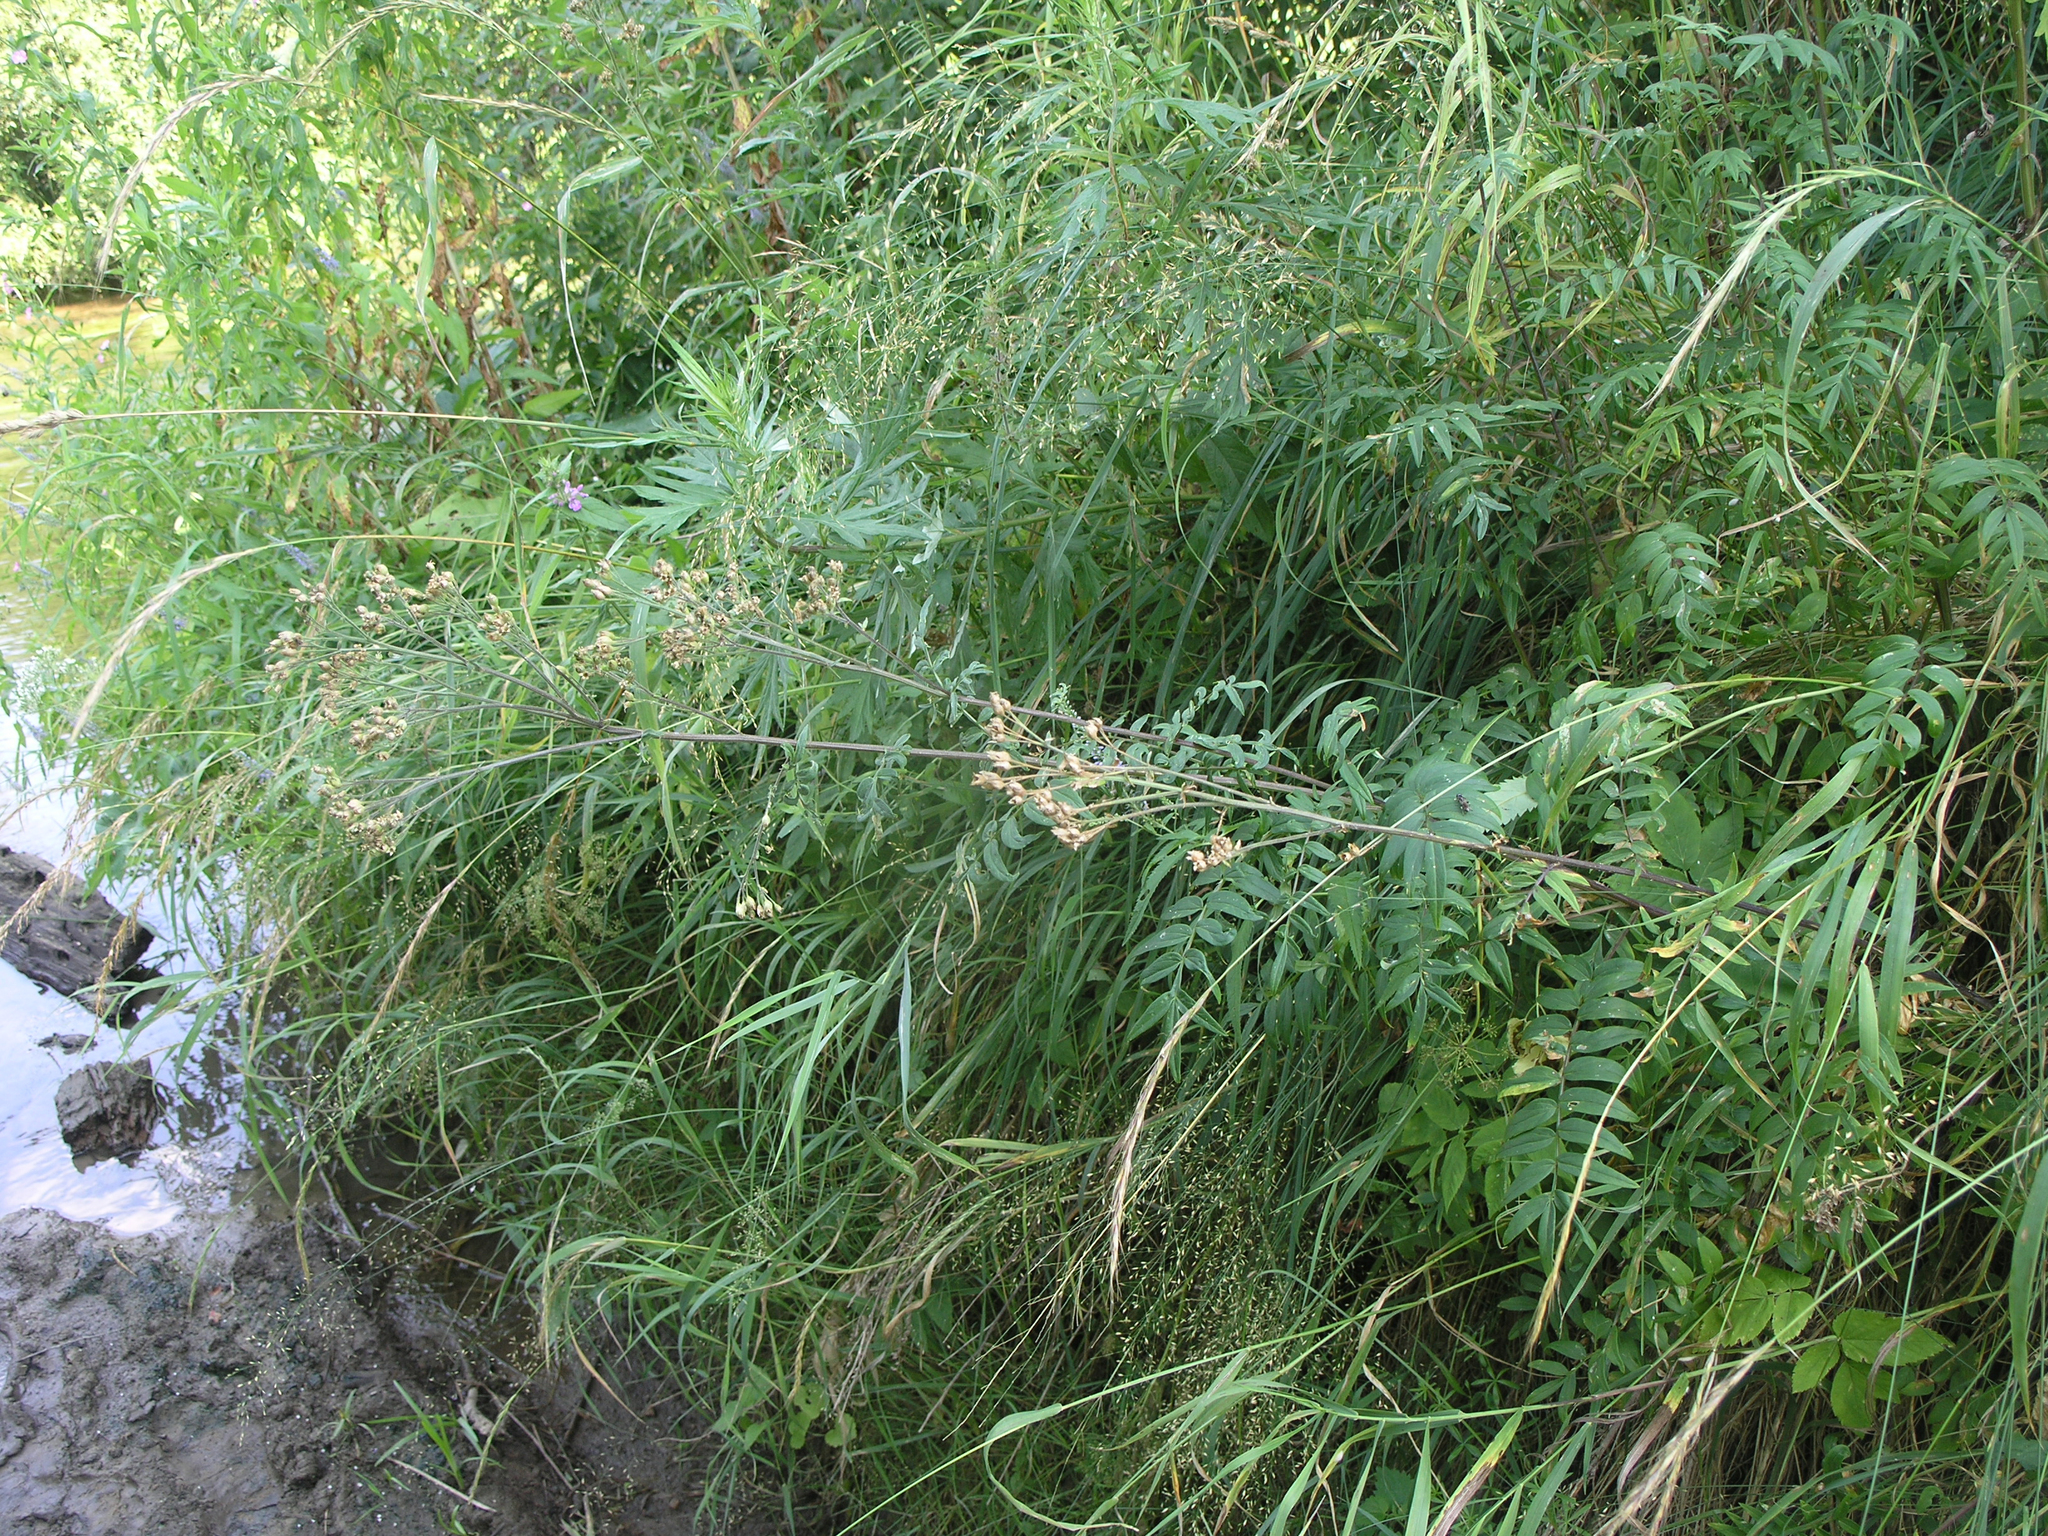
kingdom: Plantae
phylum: Tracheophyta
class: Magnoliopsida
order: Ericales
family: Polemoniaceae
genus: Polemonium
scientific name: Polemonium caeruleum
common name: Jacob's-ladder
